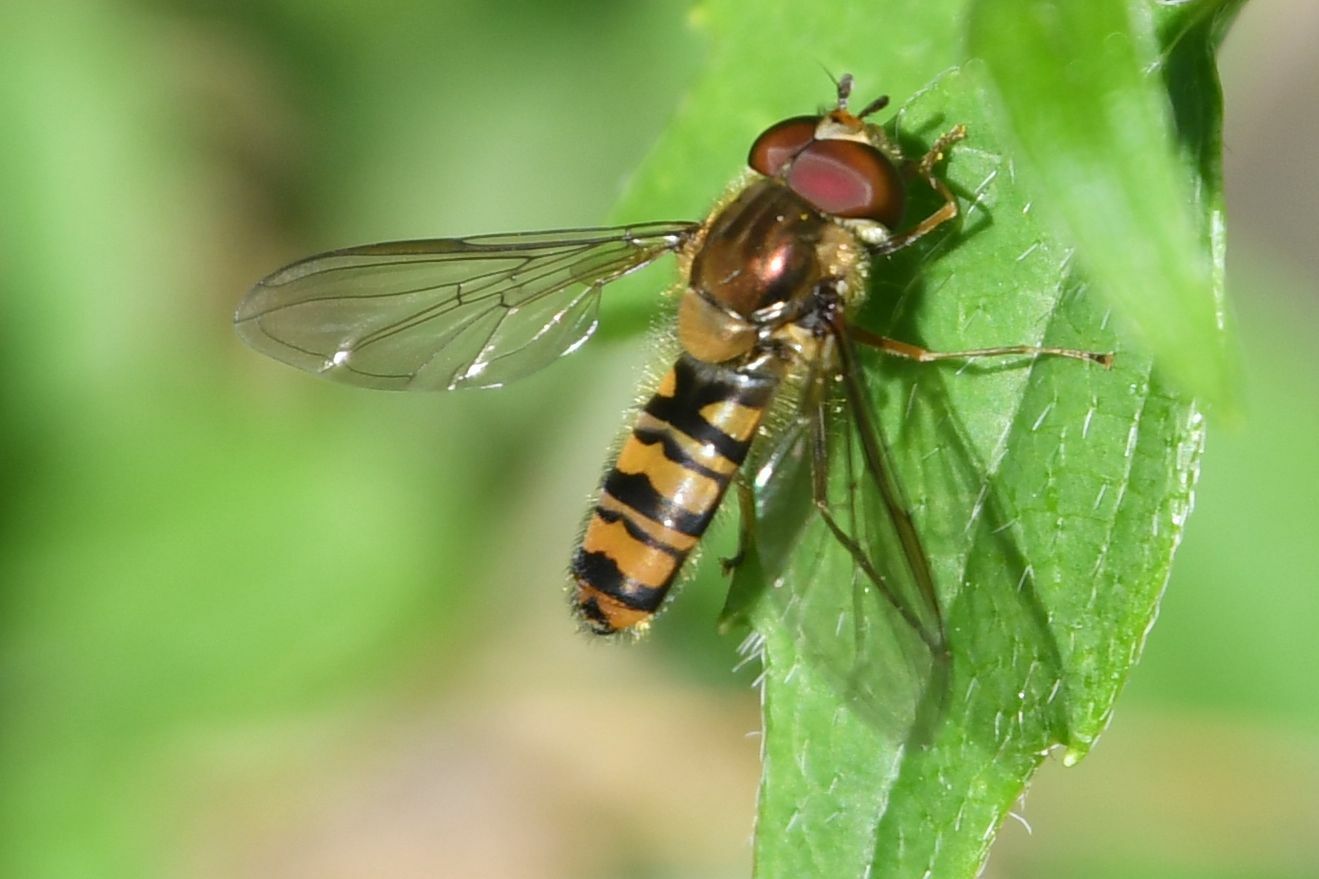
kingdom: Animalia
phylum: Arthropoda
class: Insecta
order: Diptera
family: Syrphidae
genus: Episyrphus
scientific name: Episyrphus balteatus
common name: Marmalade hoverfly
